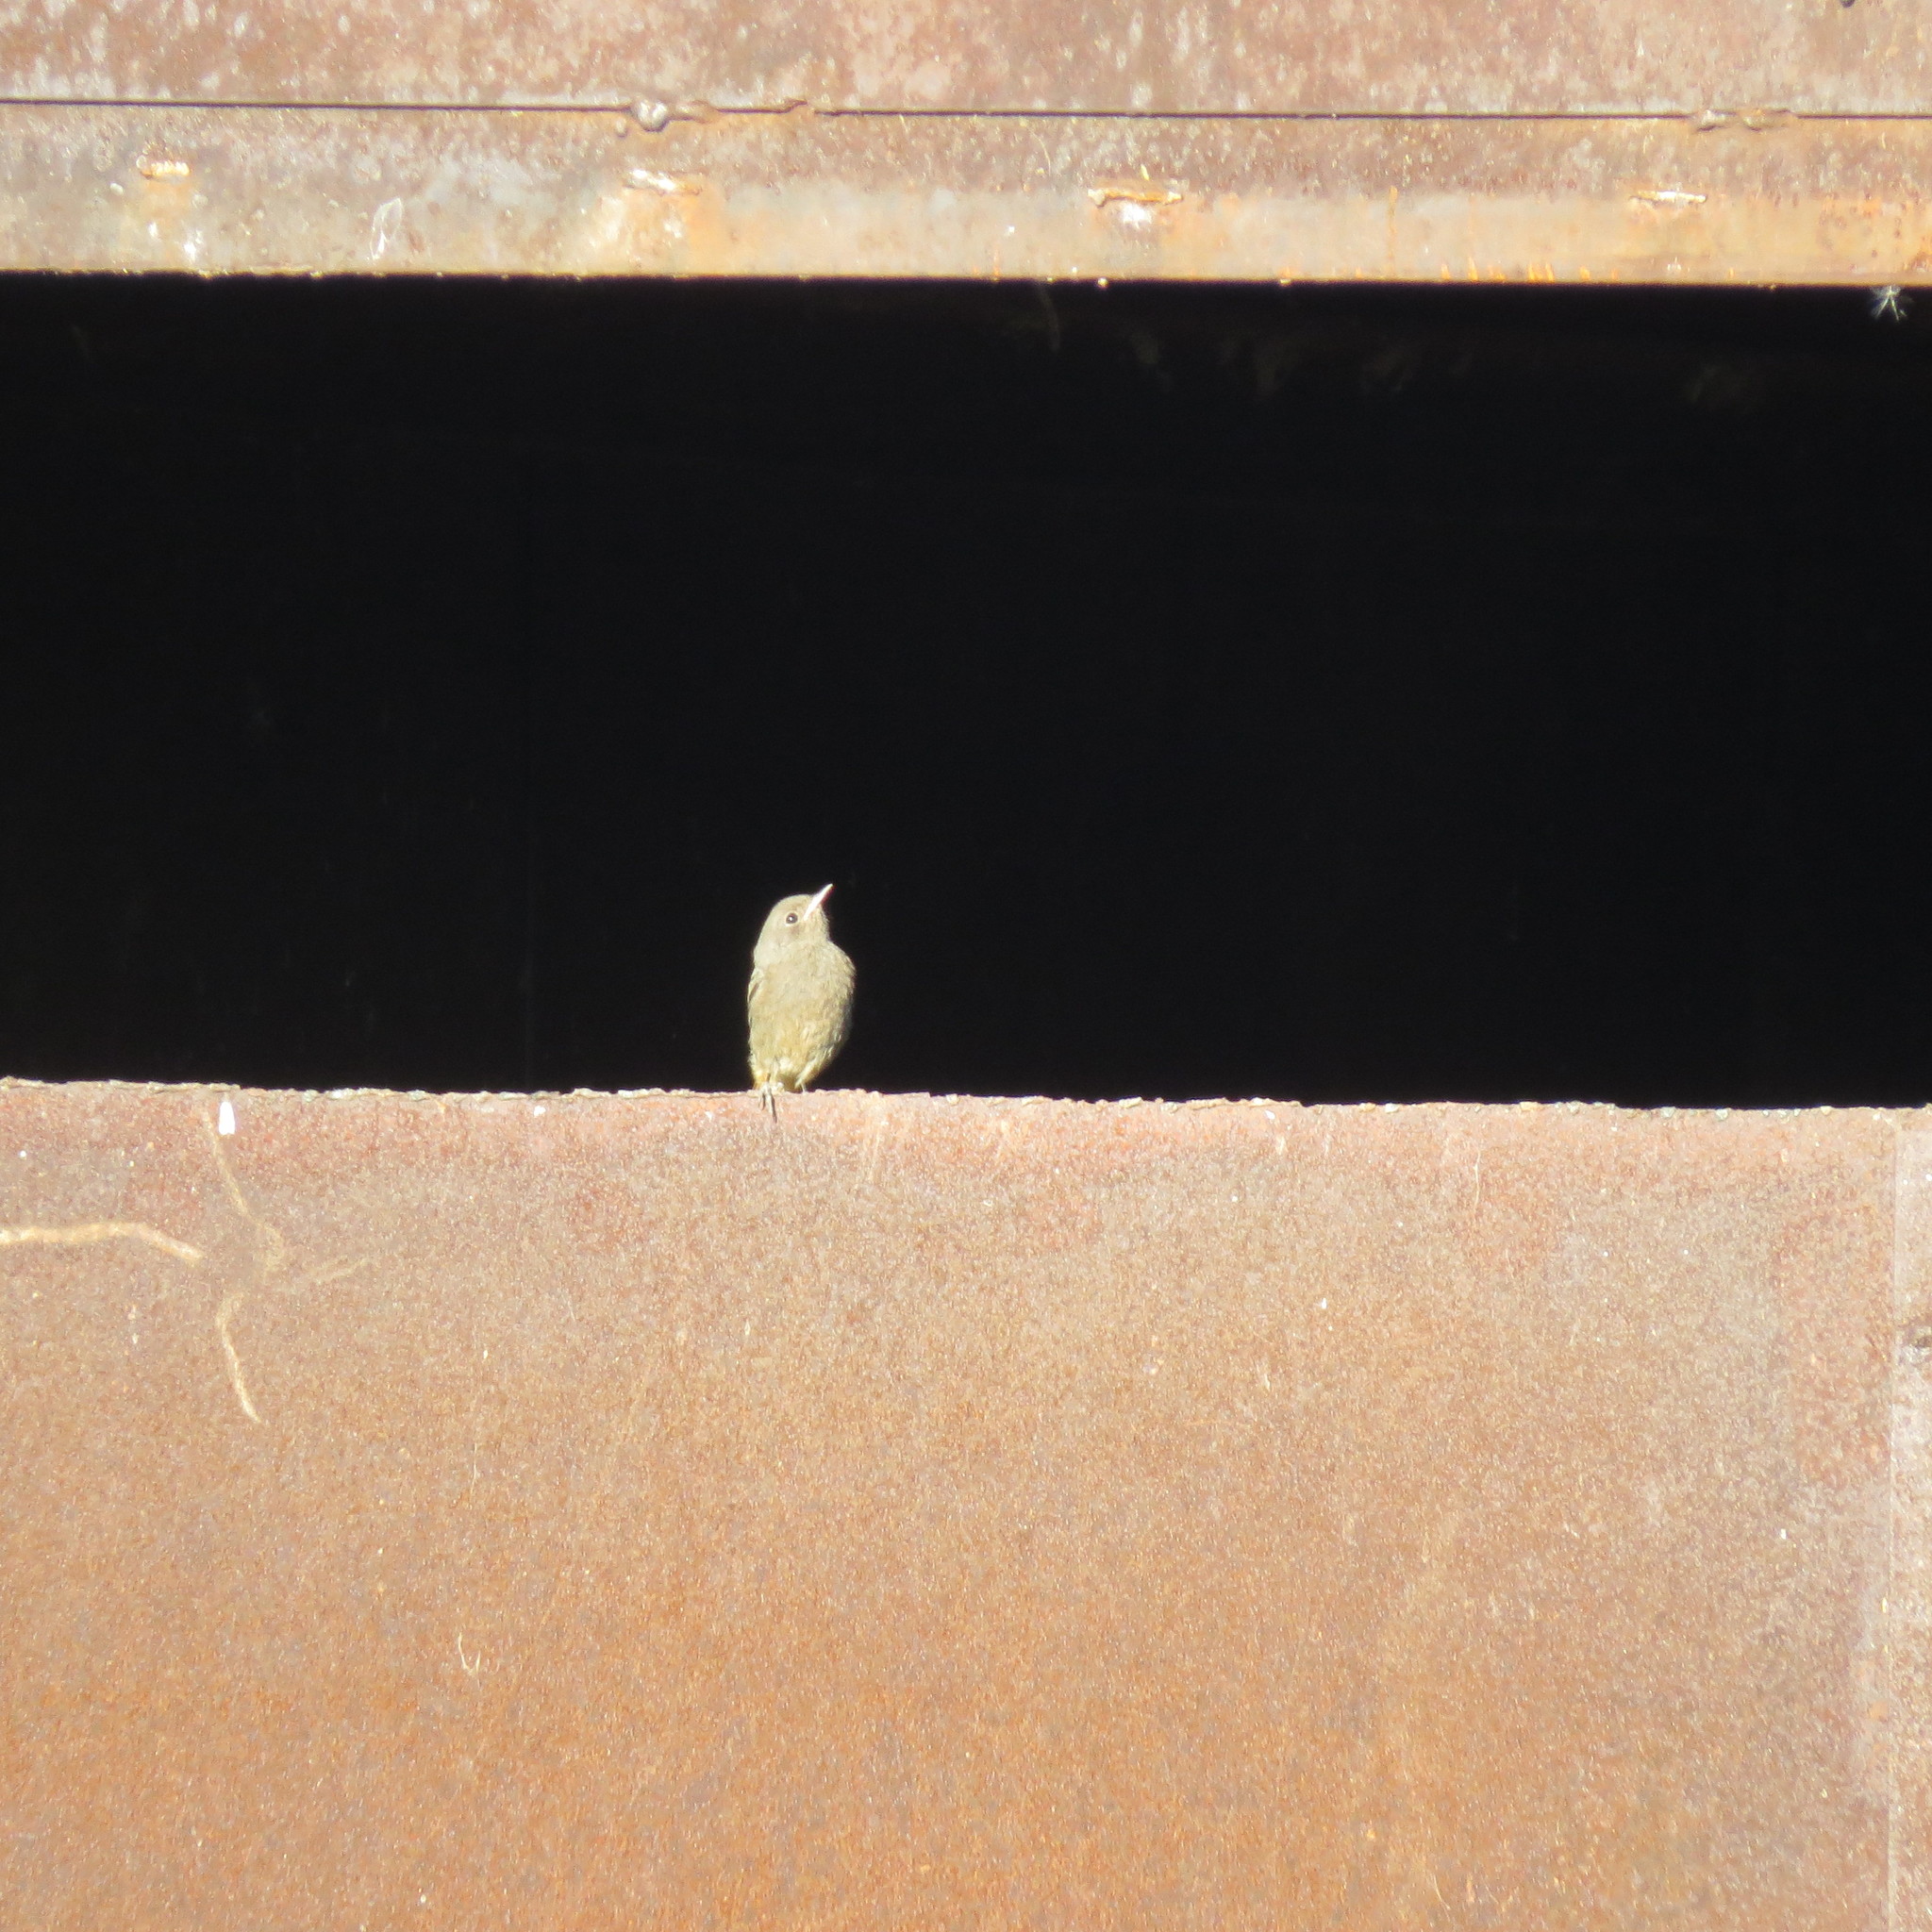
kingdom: Animalia
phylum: Chordata
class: Aves
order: Passeriformes
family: Muscicapidae
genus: Phoenicurus
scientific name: Phoenicurus ochruros
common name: Black redstart
